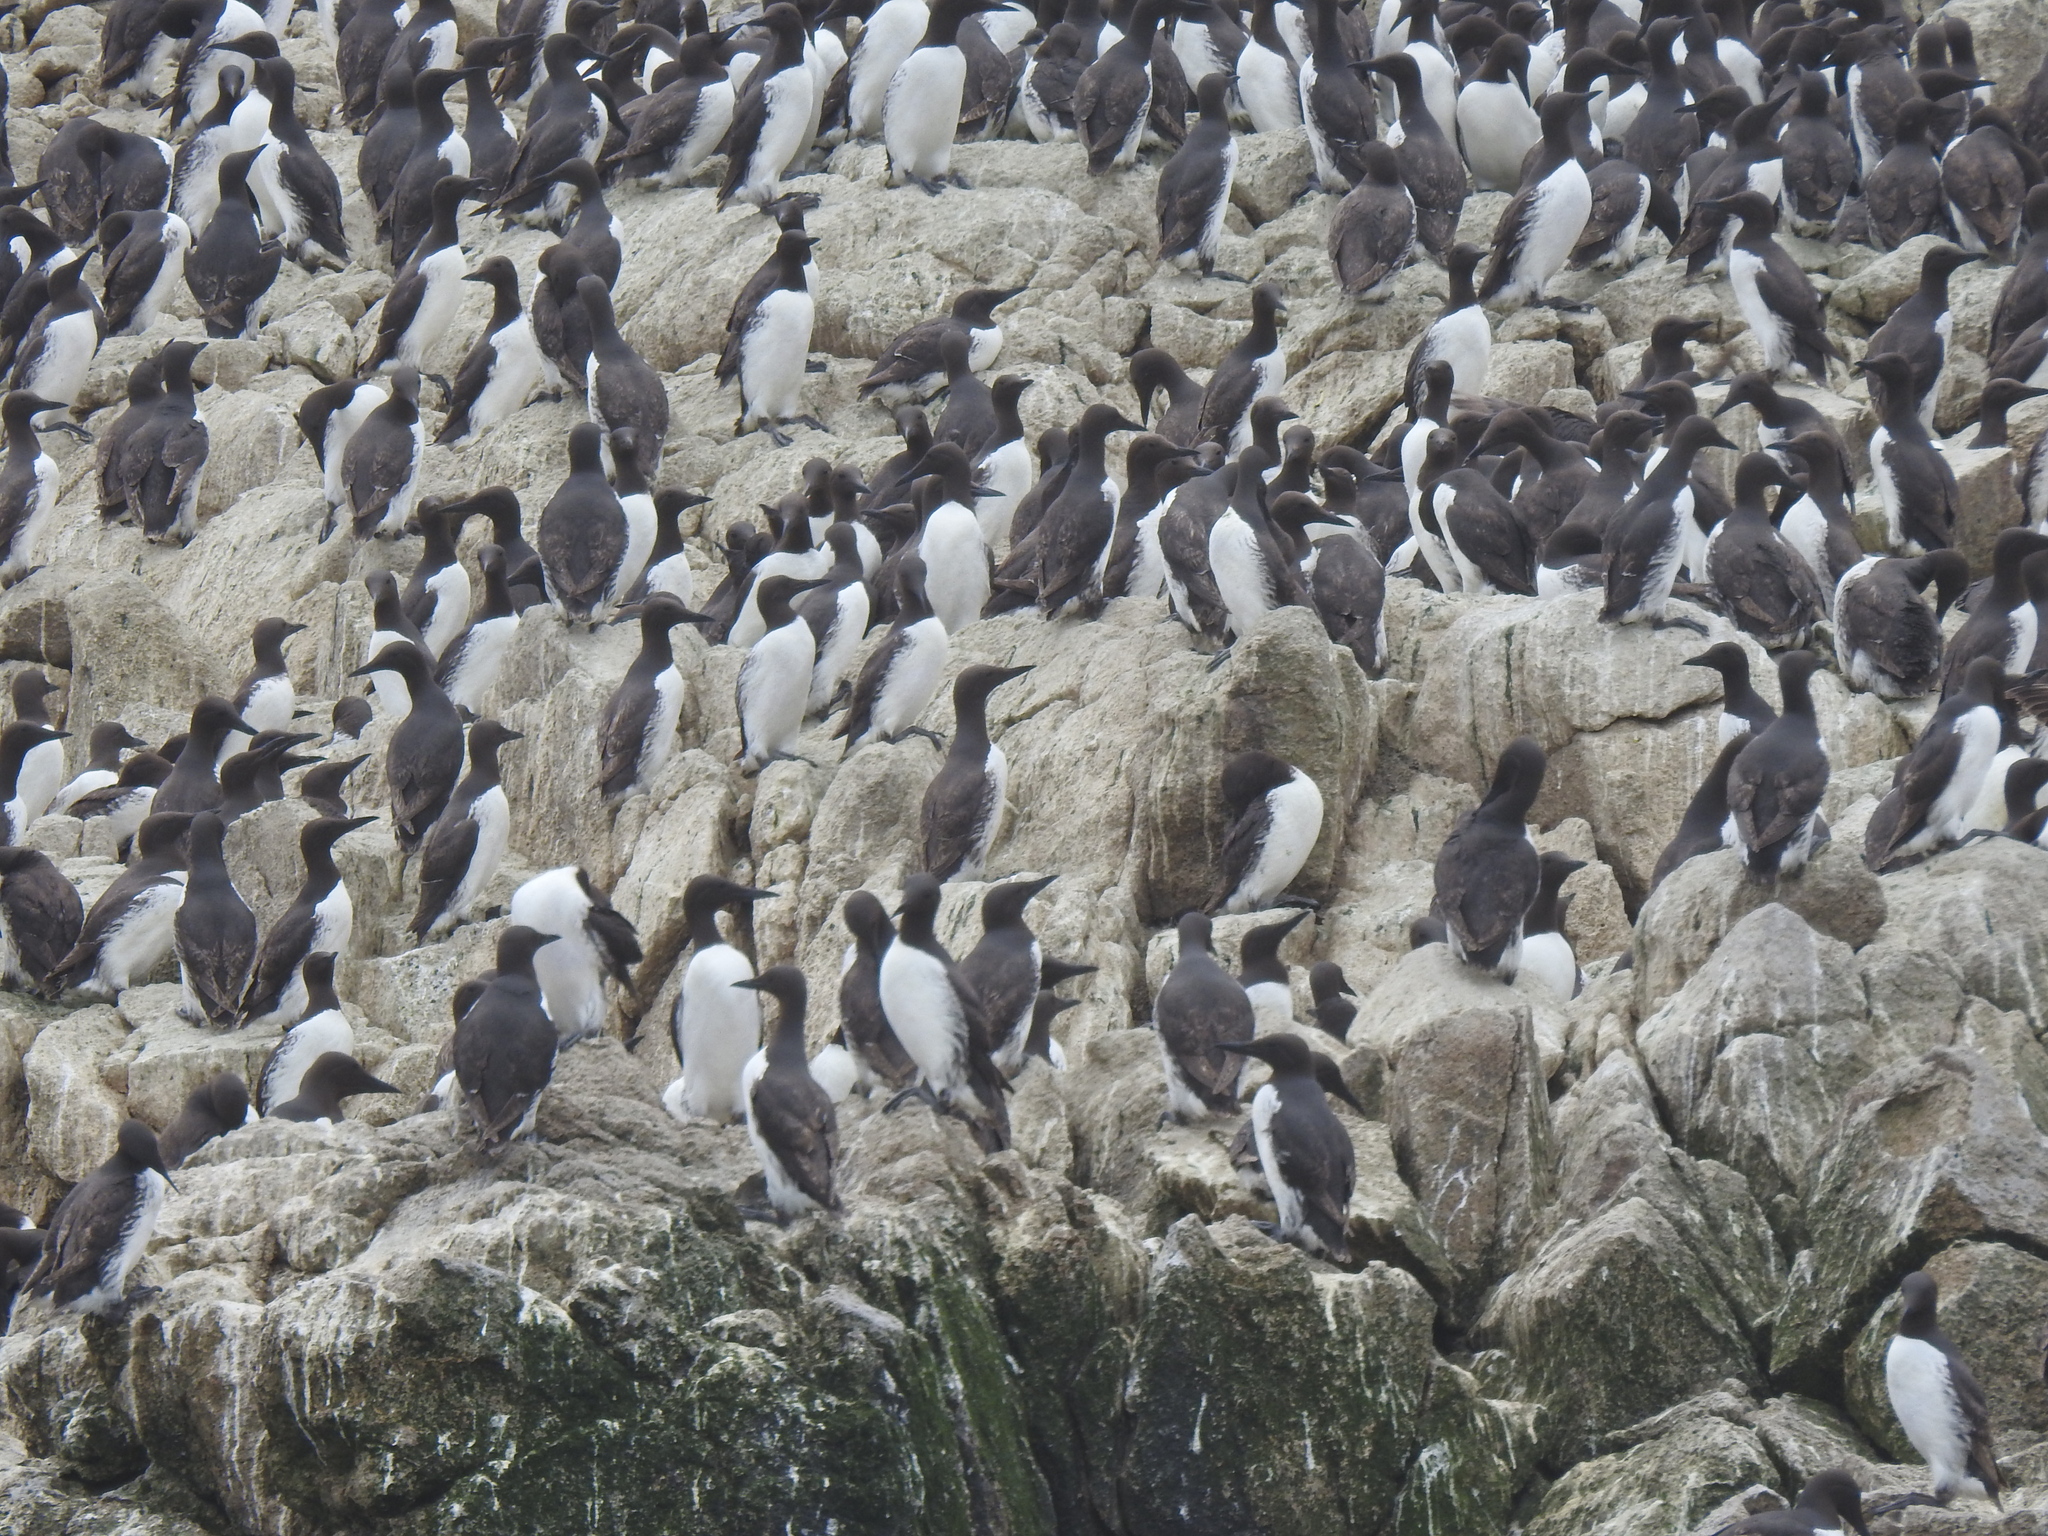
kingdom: Animalia
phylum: Chordata
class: Aves
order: Charadriiformes
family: Alcidae
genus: Uria
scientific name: Uria aalge
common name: Common murre
